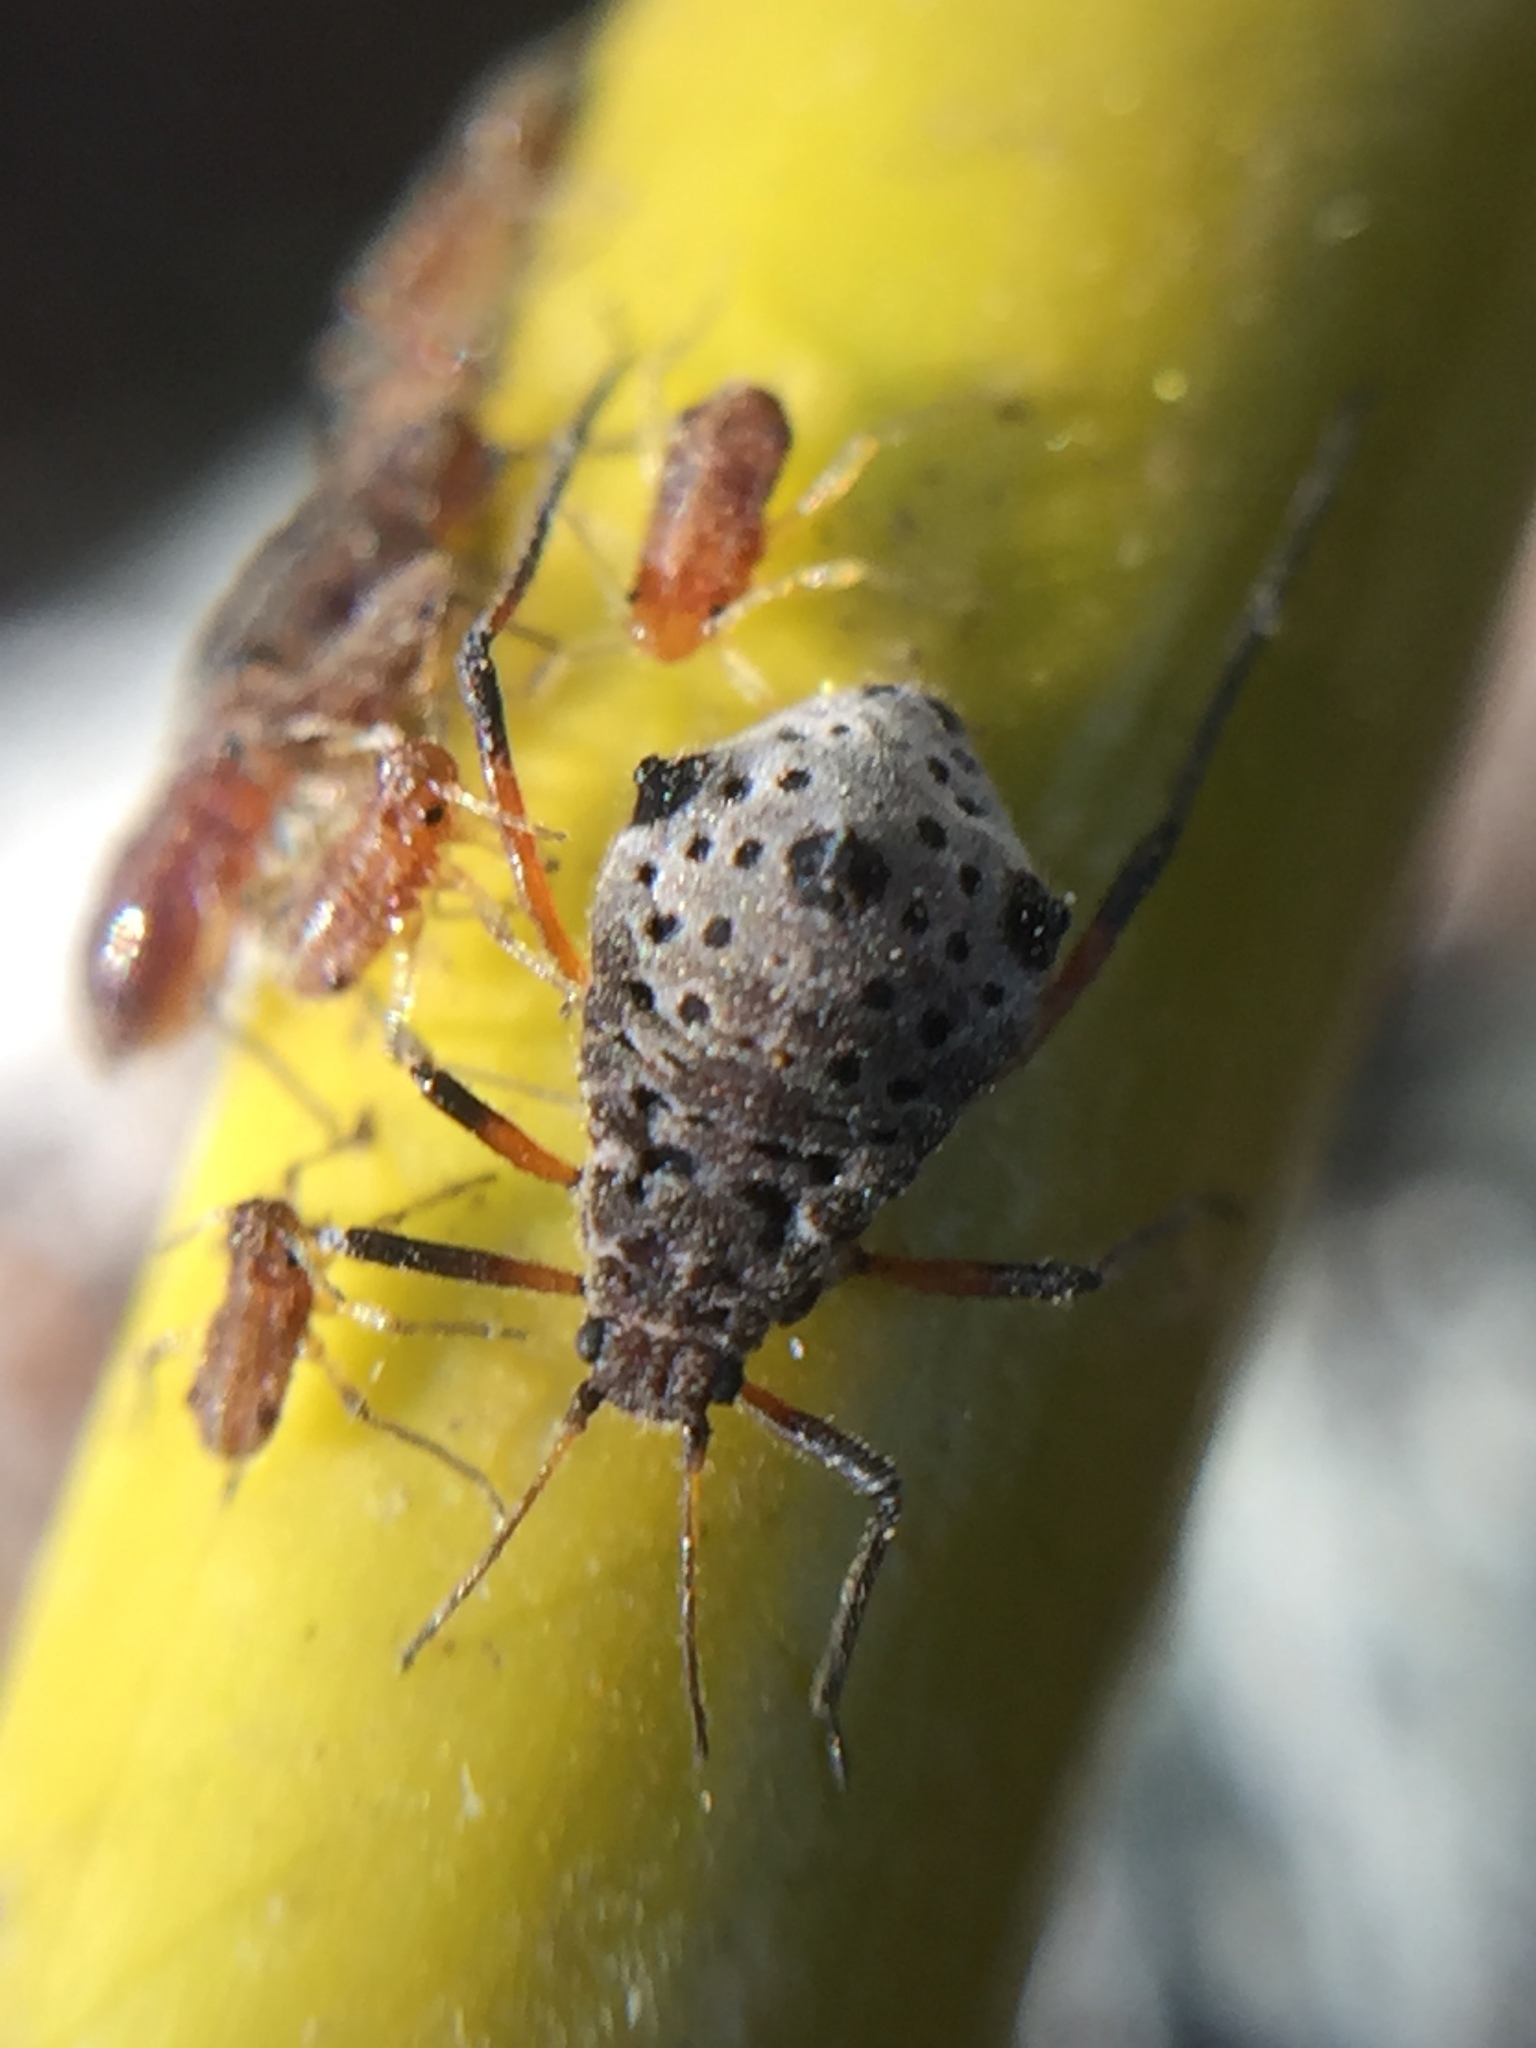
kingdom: Animalia
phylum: Arthropoda
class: Insecta
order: Hemiptera
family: Aphididae
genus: Tuberolachnus
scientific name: Tuberolachnus salignus
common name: Giant willow aphid
